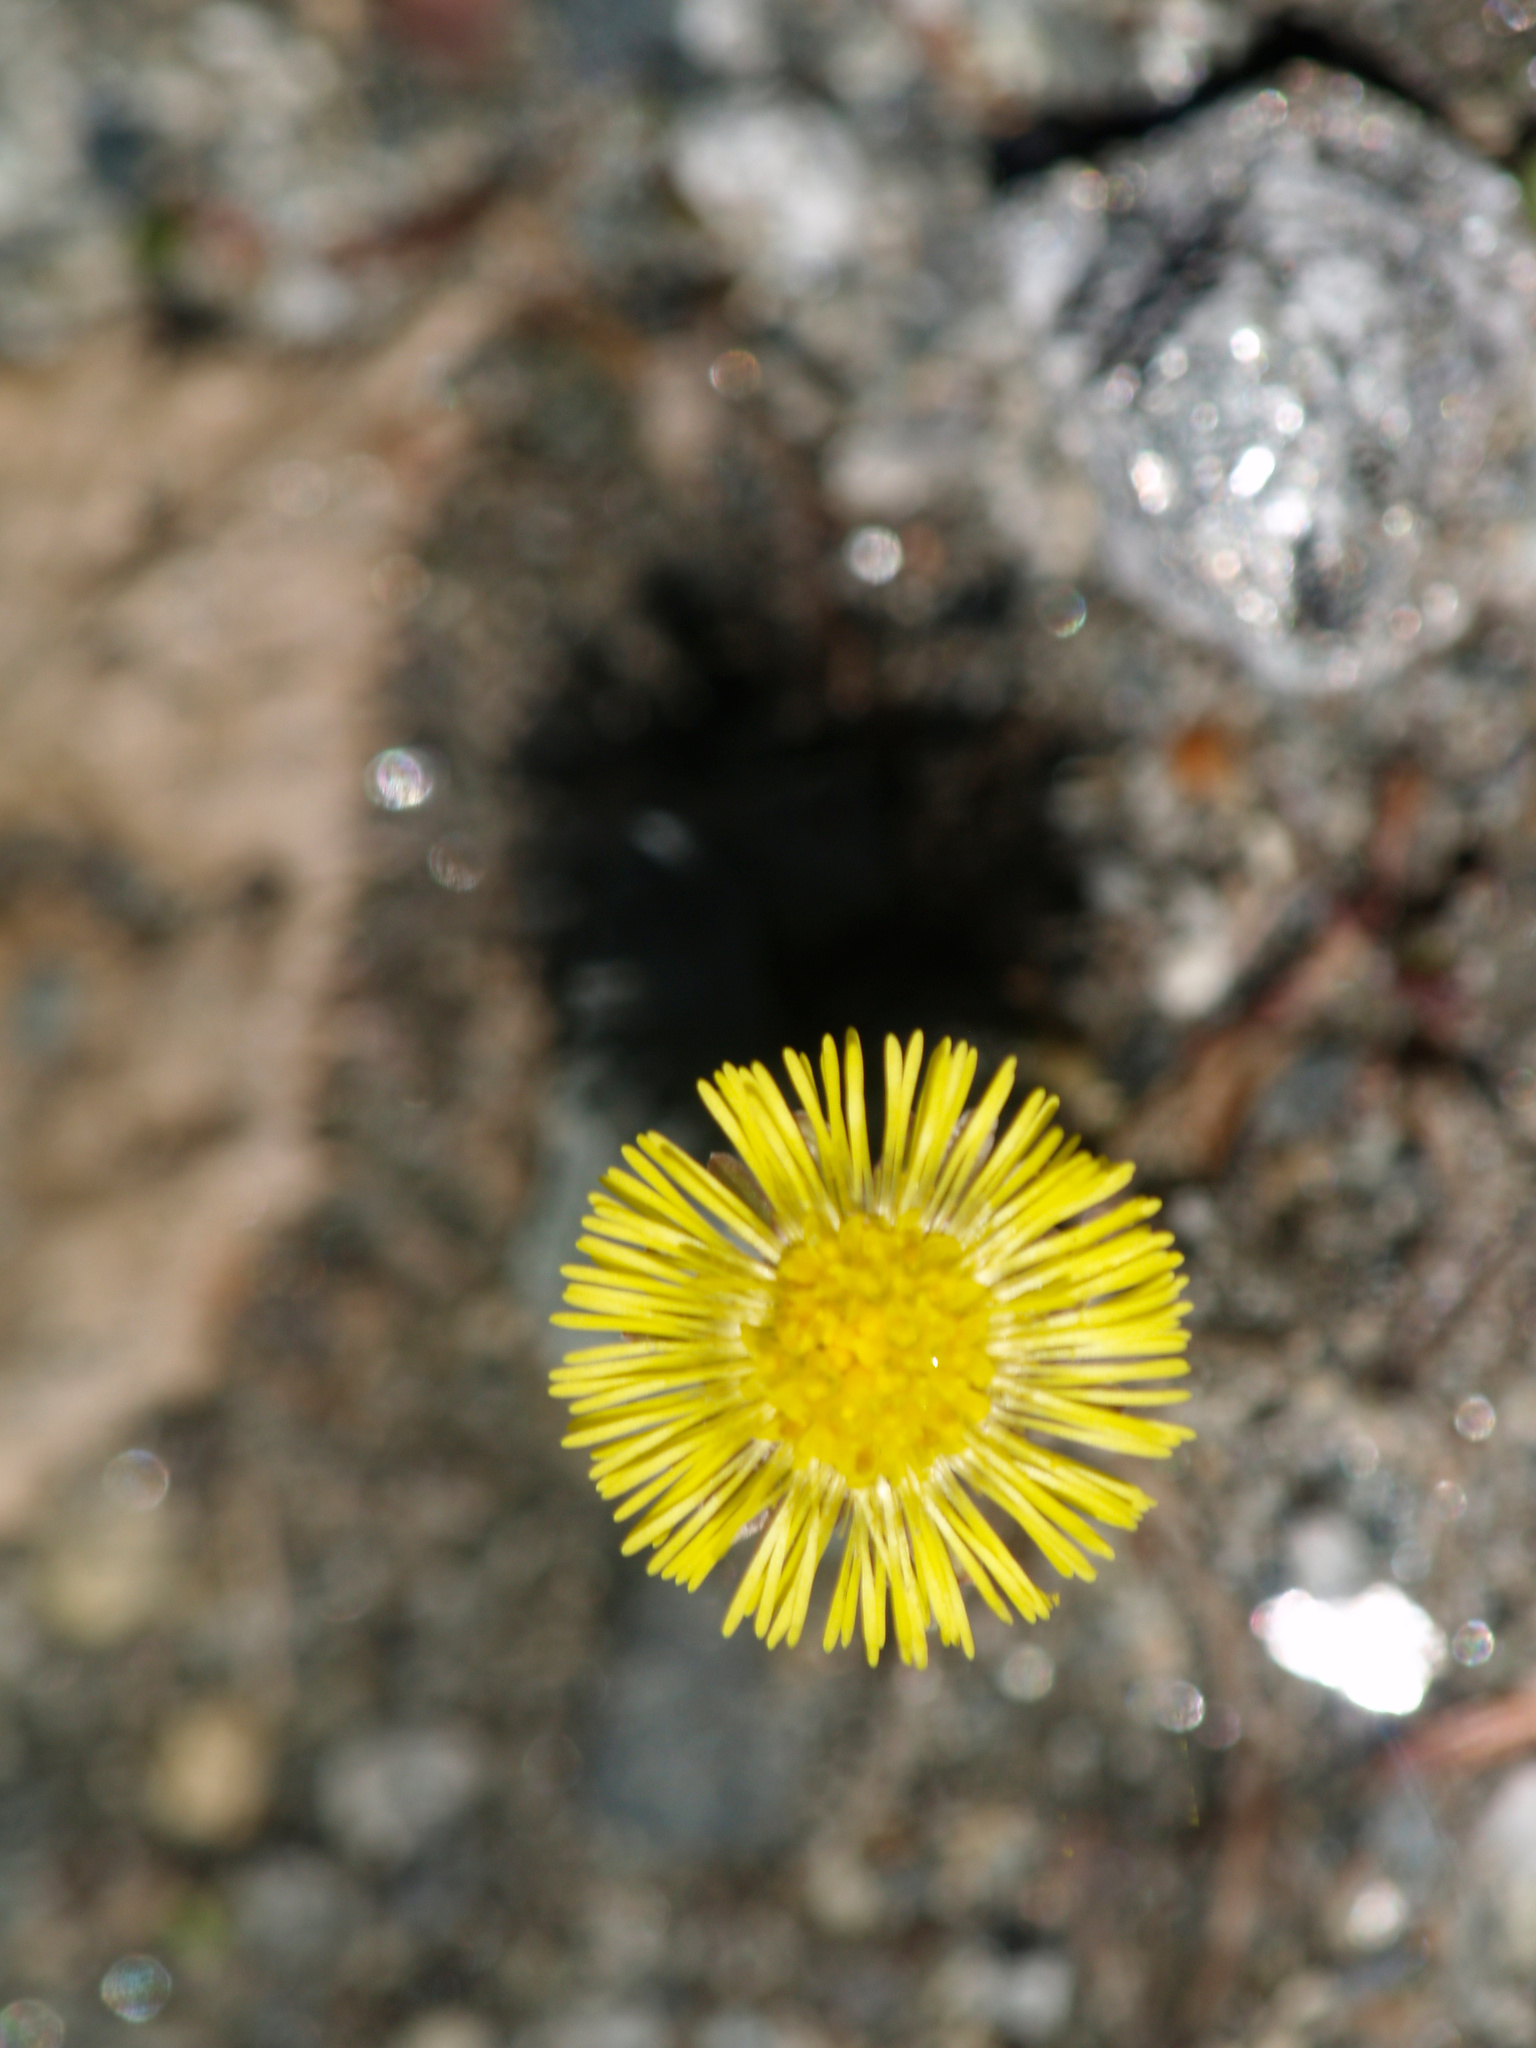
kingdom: Plantae
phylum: Tracheophyta
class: Magnoliopsida
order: Asterales
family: Asteraceae
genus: Tussilago
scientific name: Tussilago farfara
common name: Coltsfoot
